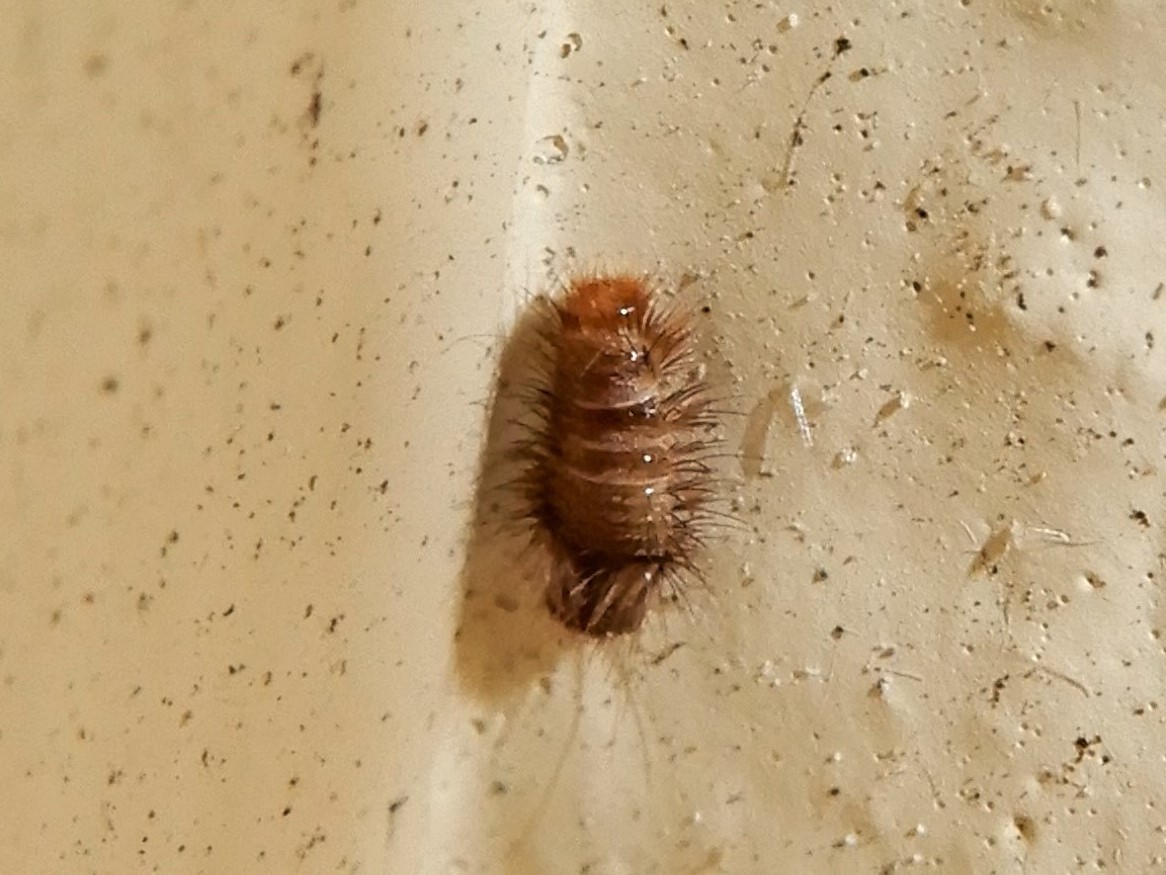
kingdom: Animalia
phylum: Arthropoda
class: Insecta
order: Coleoptera
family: Dermestidae
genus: Anthrenus
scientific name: Anthrenus verbasci
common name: Varied carpet beetle
